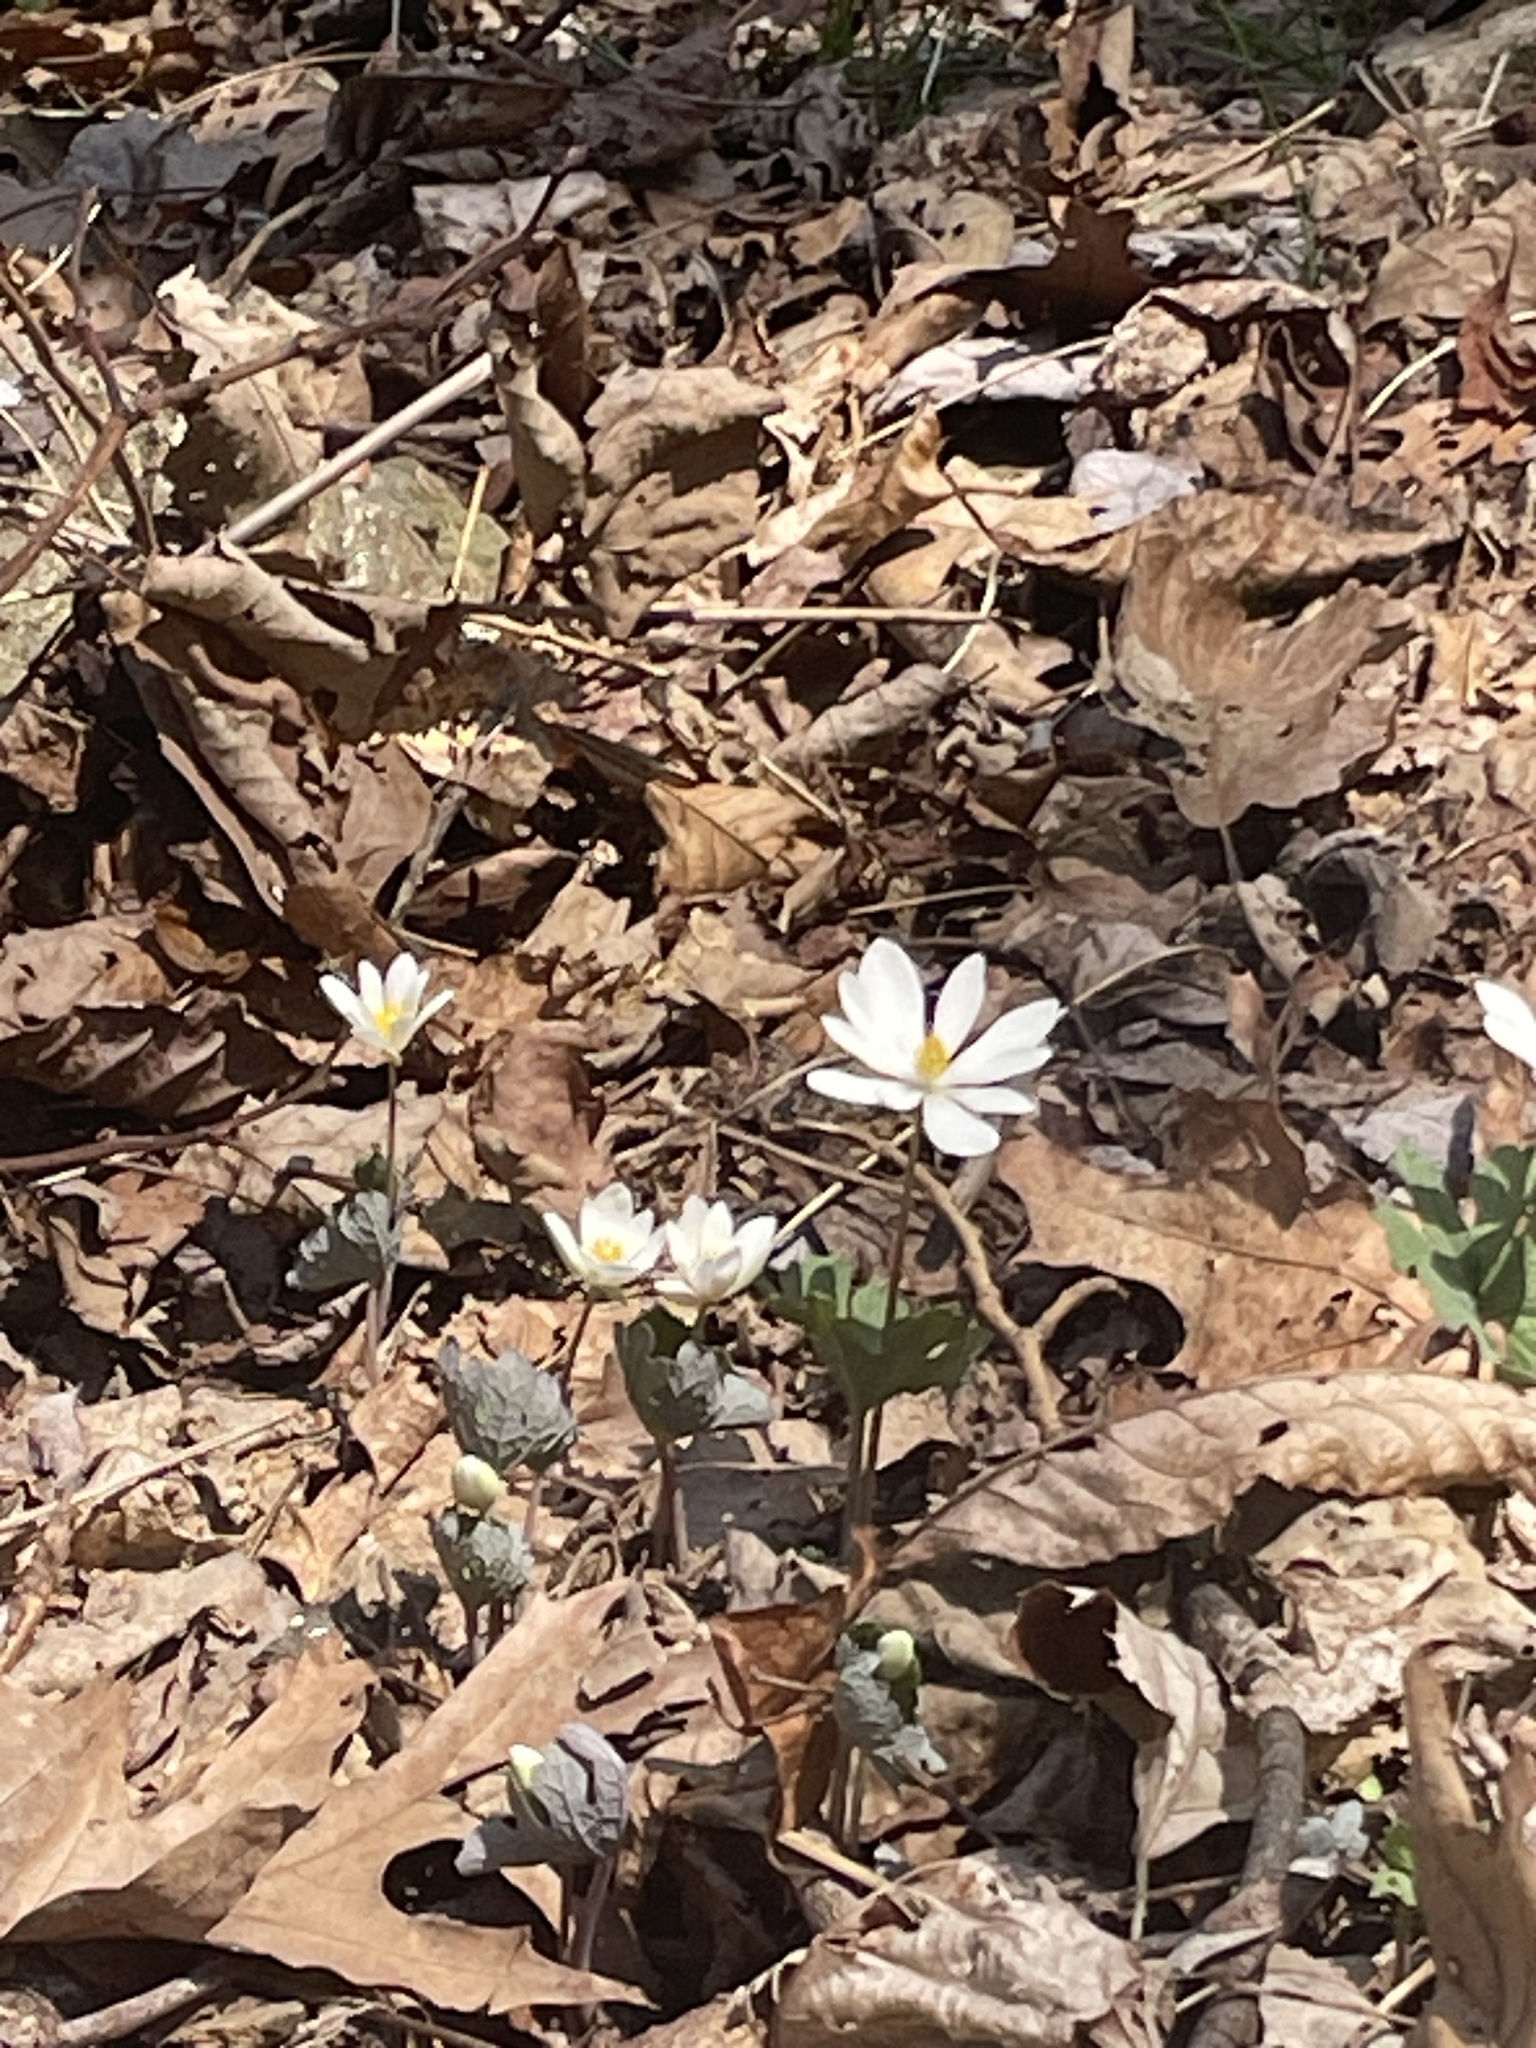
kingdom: Plantae
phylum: Tracheophyta
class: Magnoliopsida
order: Ranunculales
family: Papaveraceae
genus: Sanguinaria
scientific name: Sanguinaria canadensis
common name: Bloodroot
